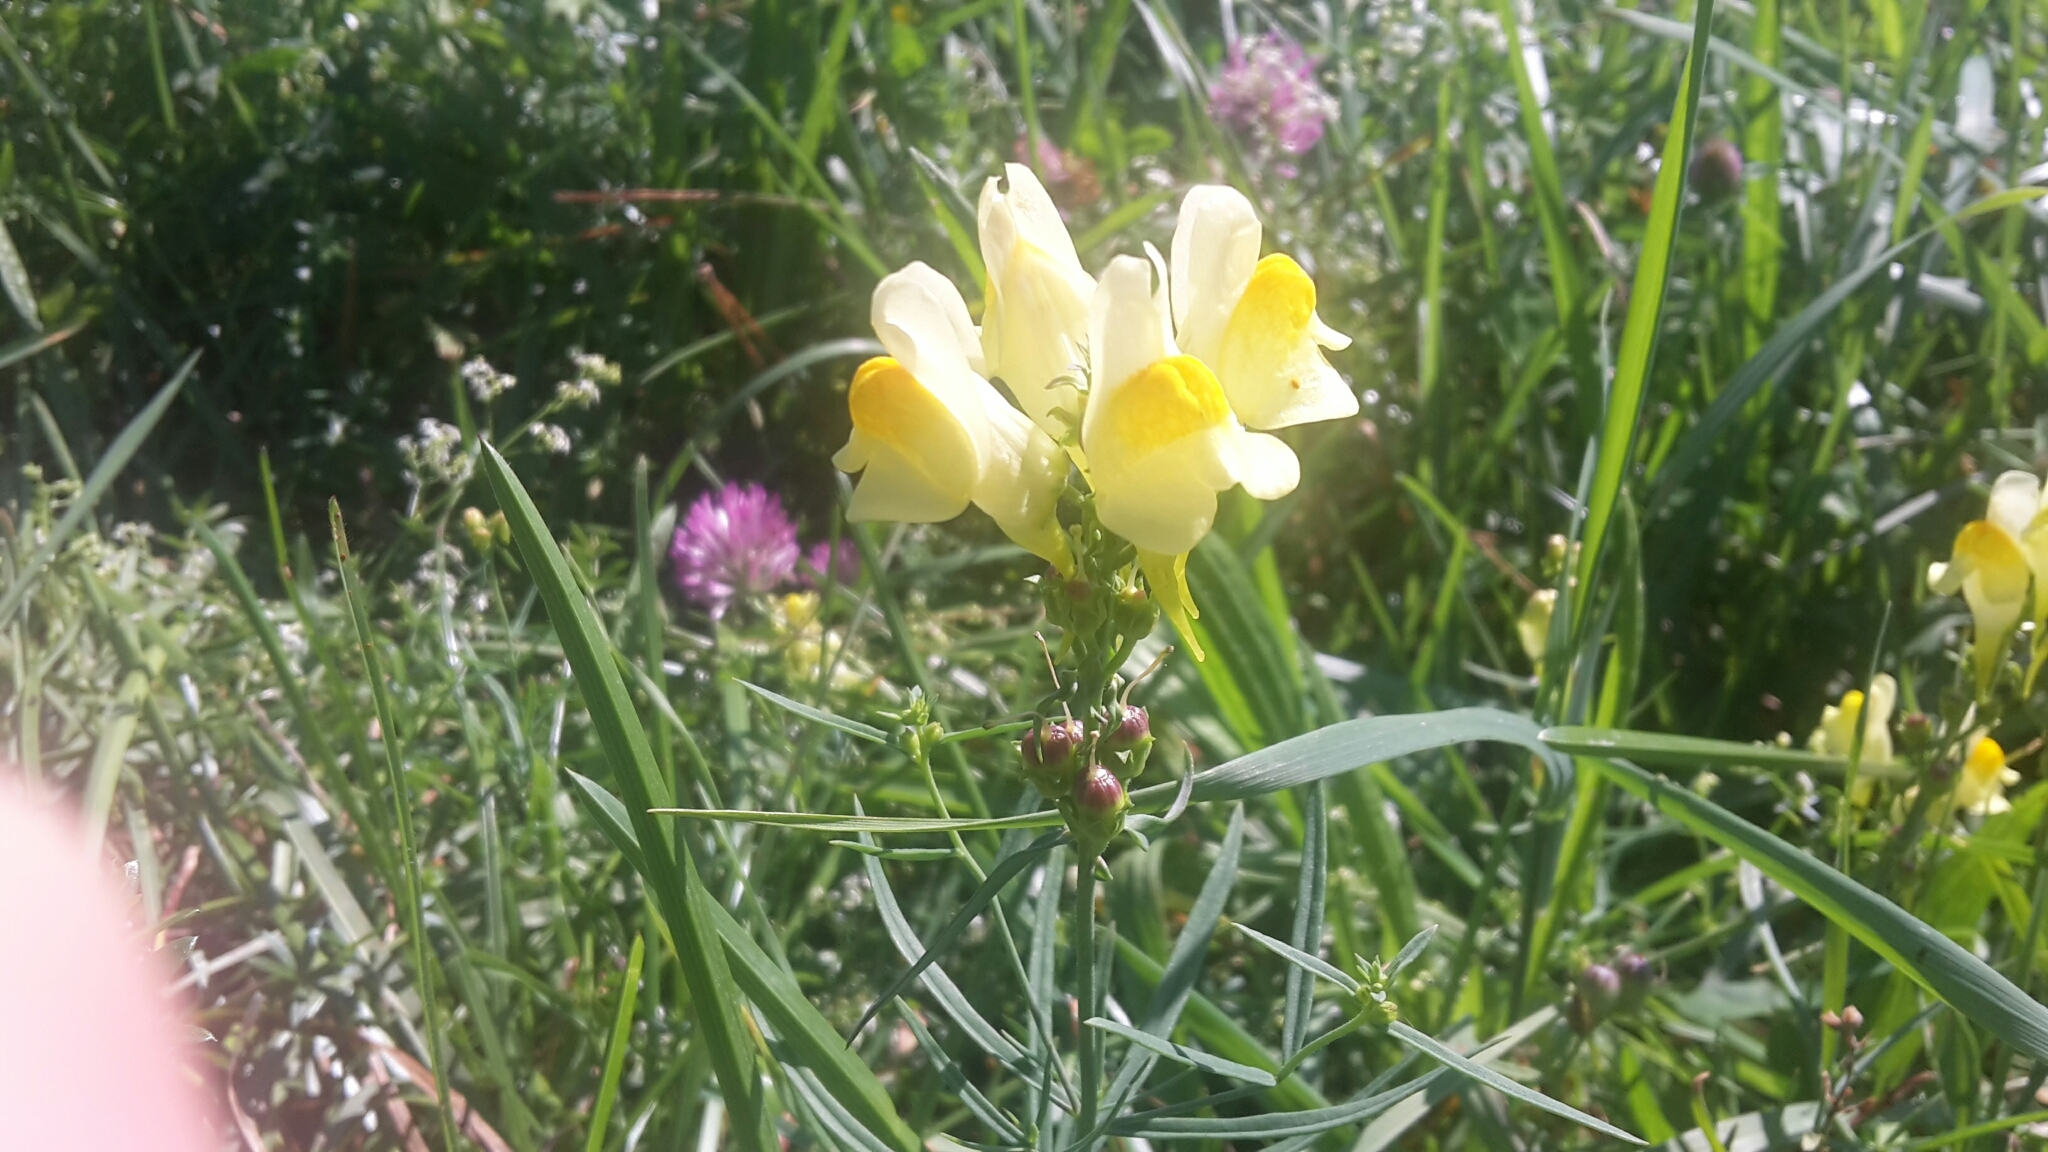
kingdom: Plantae
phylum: Tracheophyta
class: Magnoliopsida
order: Lamiales
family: Plantaginaceae
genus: Linaria
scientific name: Linaria vulgaris
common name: Butter and eggs
